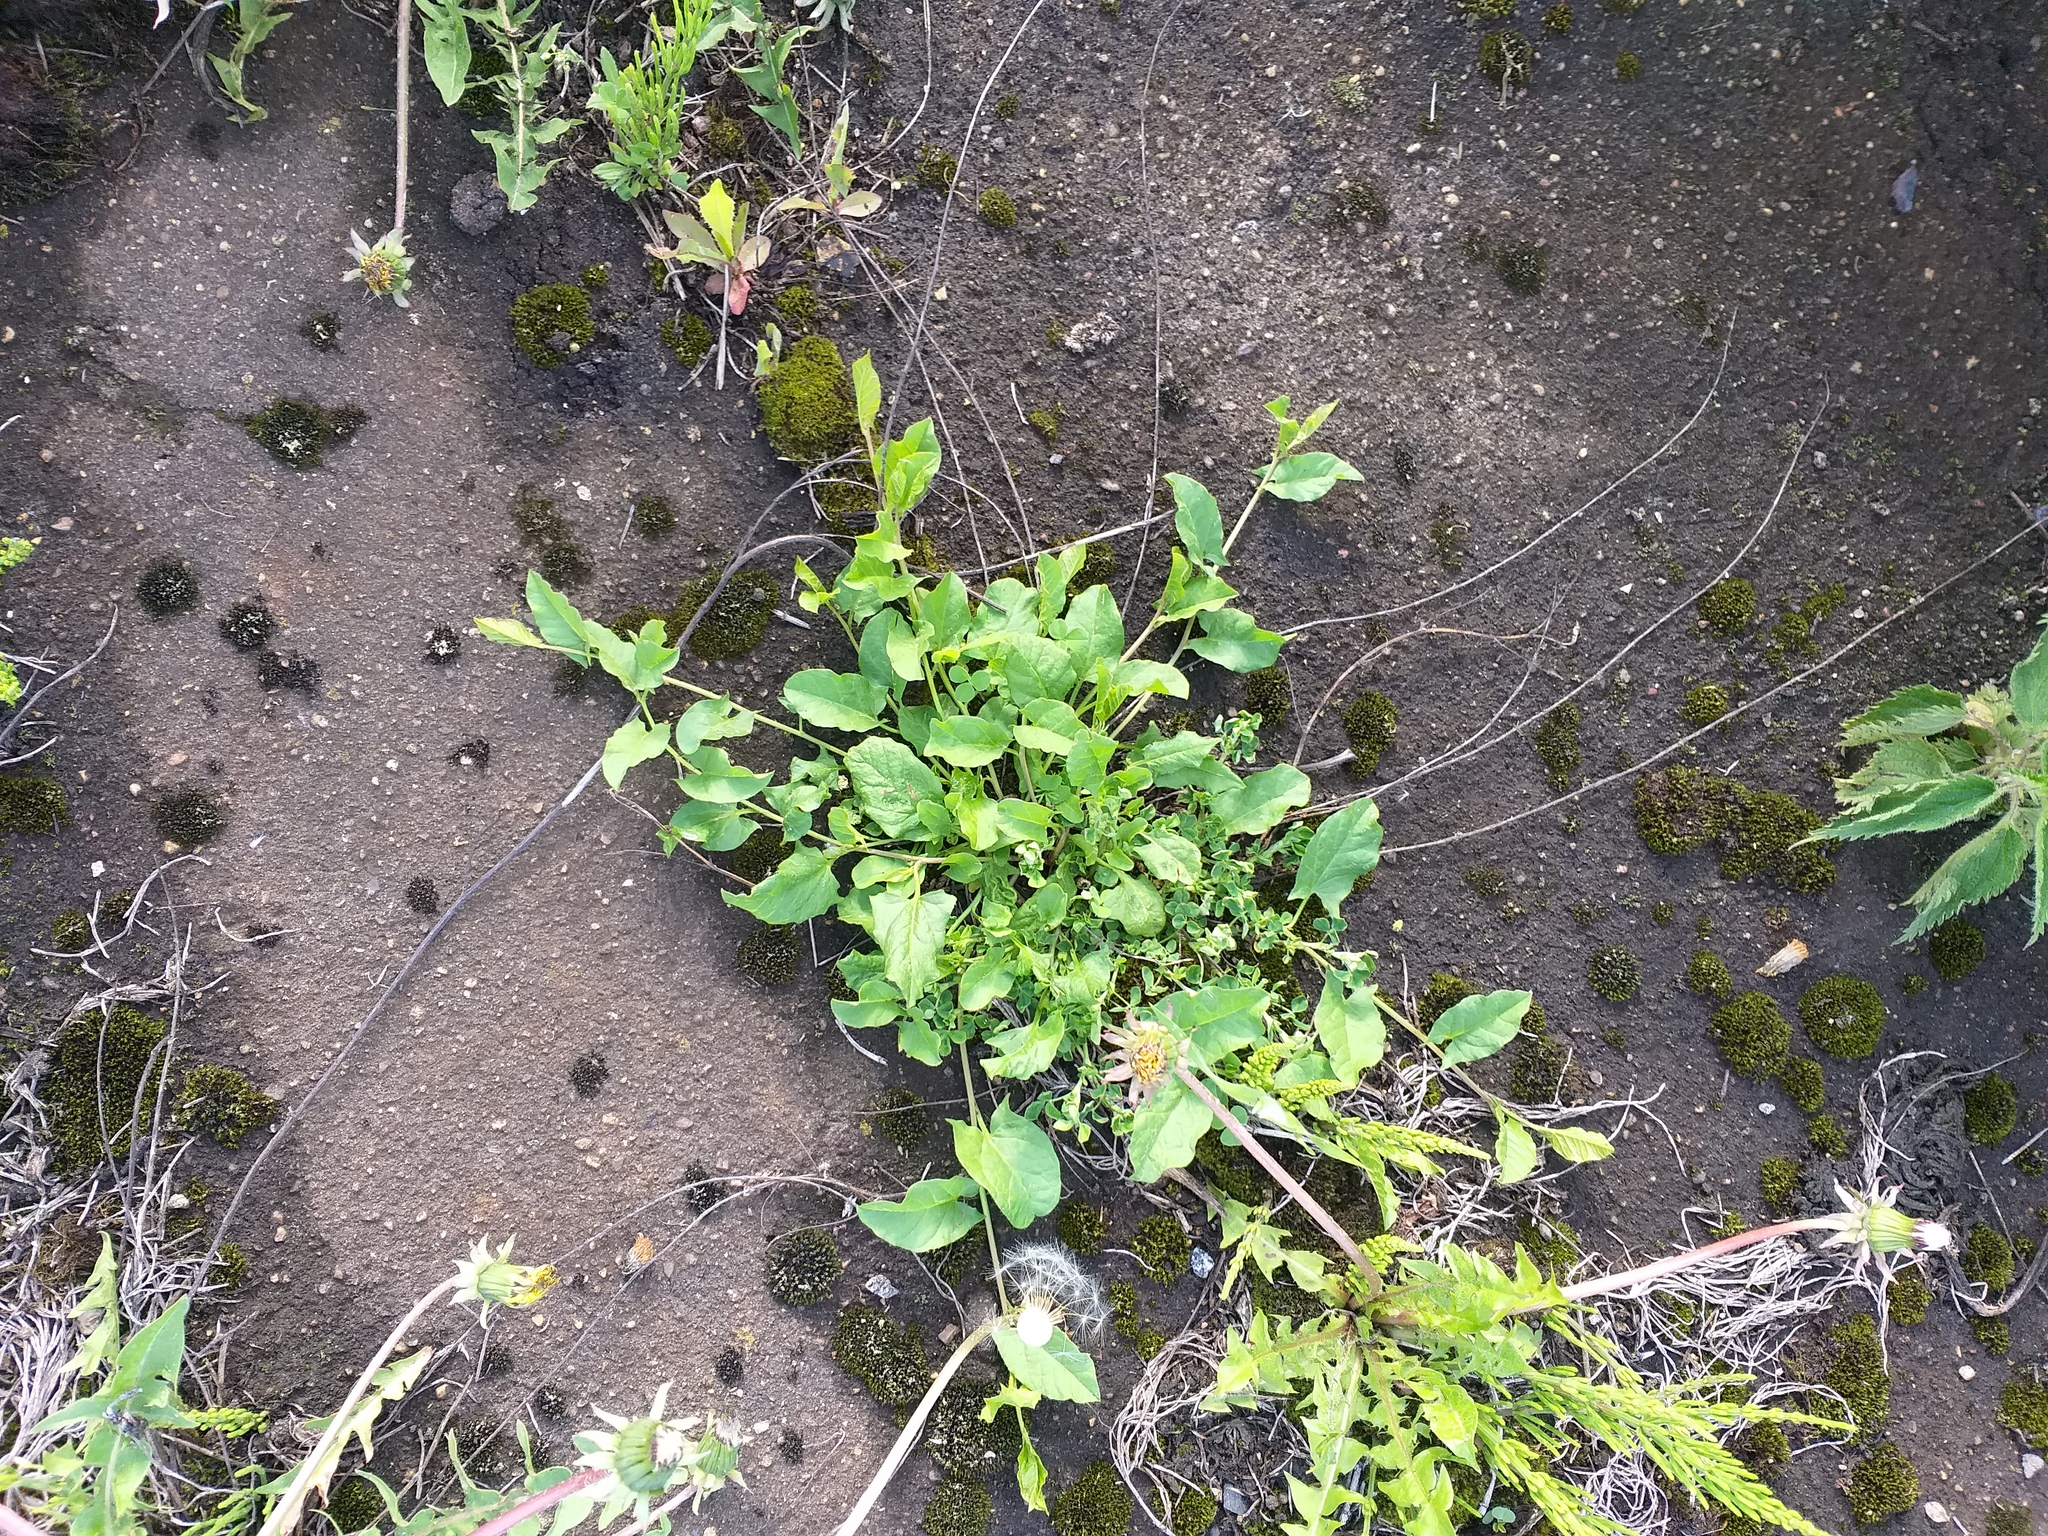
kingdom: Plantae
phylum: Tracheophyta
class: Magnoliopsida
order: Solanales
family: Convolvulaceae
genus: Convolvulus
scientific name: Convolvulus arvensis
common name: Field bindweed
